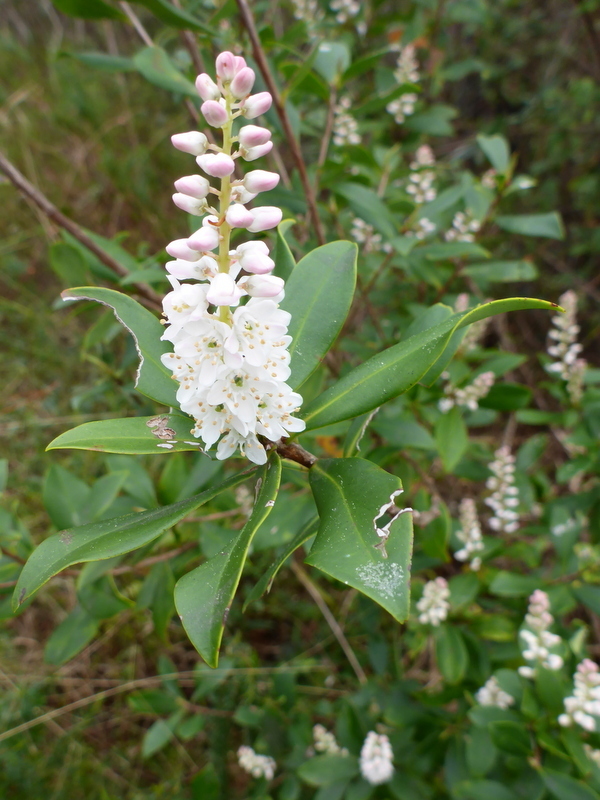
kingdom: Plantae
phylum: Tracheophyta
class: Magnoliopsida
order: Ericales
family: Cyrillaceae
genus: Cliftonia
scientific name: Cliftonia monophylla
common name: Titi
